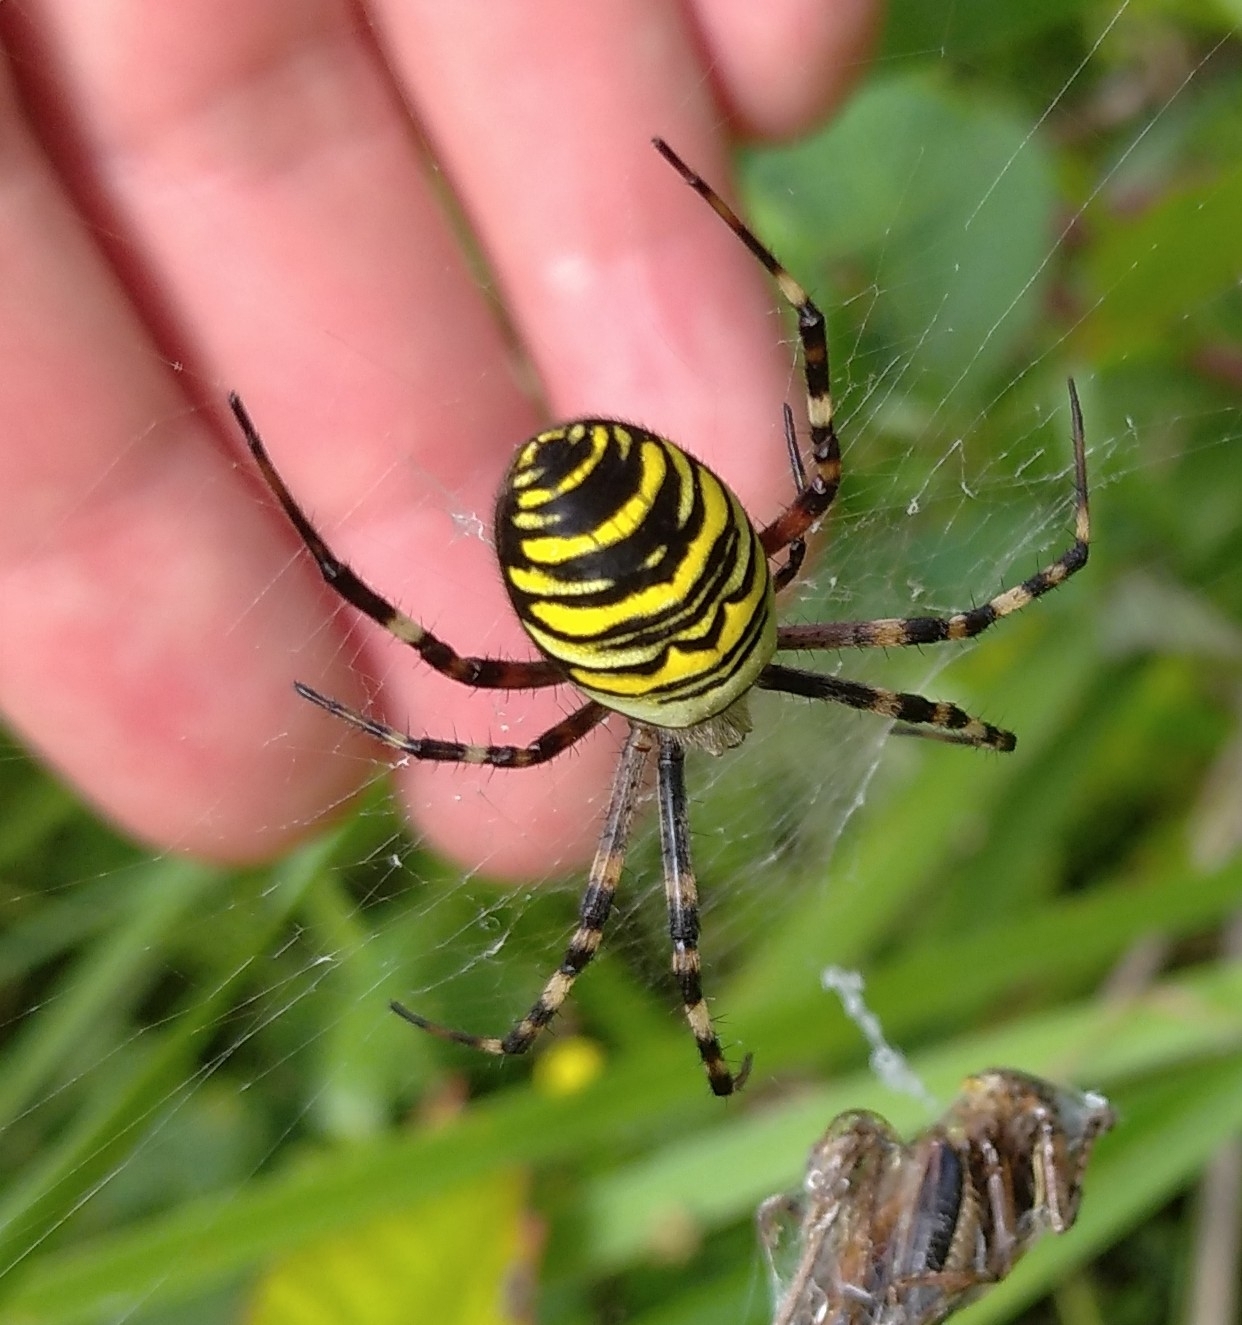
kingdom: Animalia
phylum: Arthropoda
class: Arachnida
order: Araneae
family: Araneidae
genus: Argiope
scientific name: Argiope bruennichi
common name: Wasp spider
